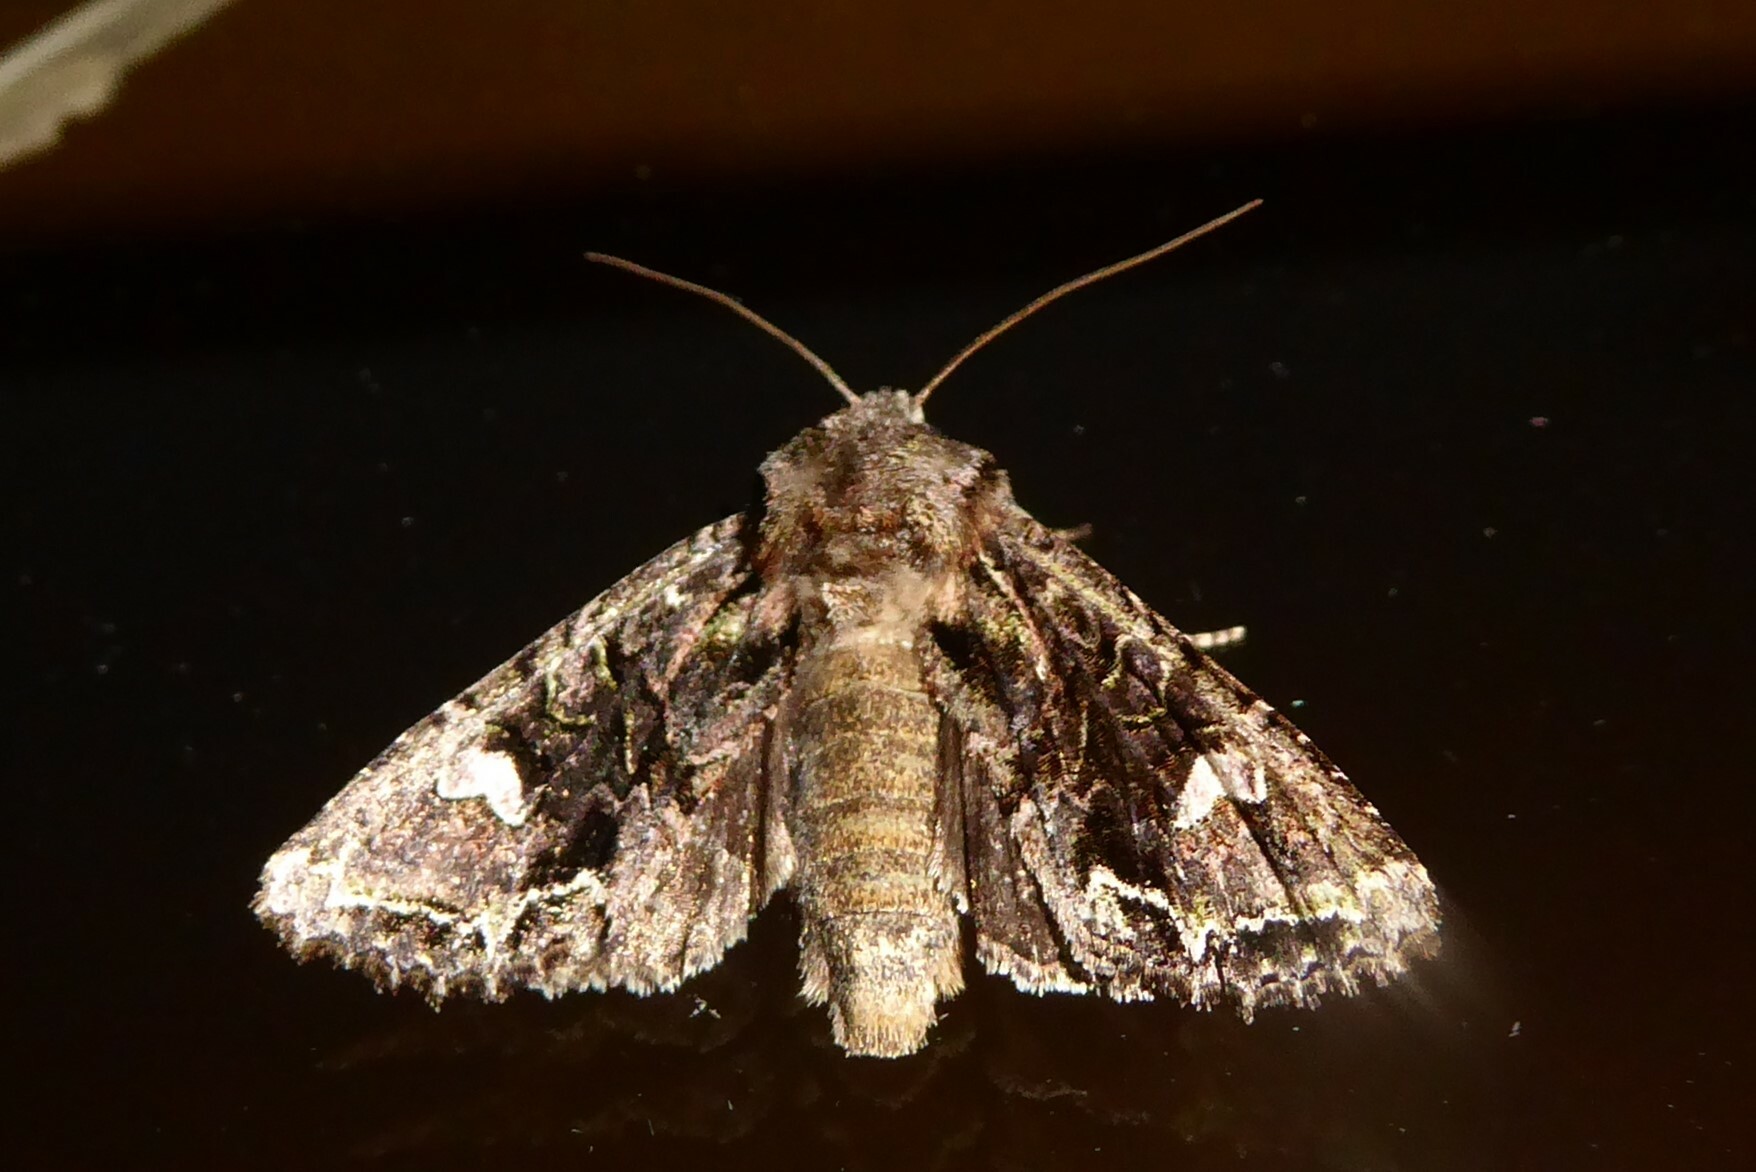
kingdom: Animalia
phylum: Arthropoda
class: Insecta
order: Lepidoptera
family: Noctuidae
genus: Ichneutica
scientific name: Ichneutica insignis
